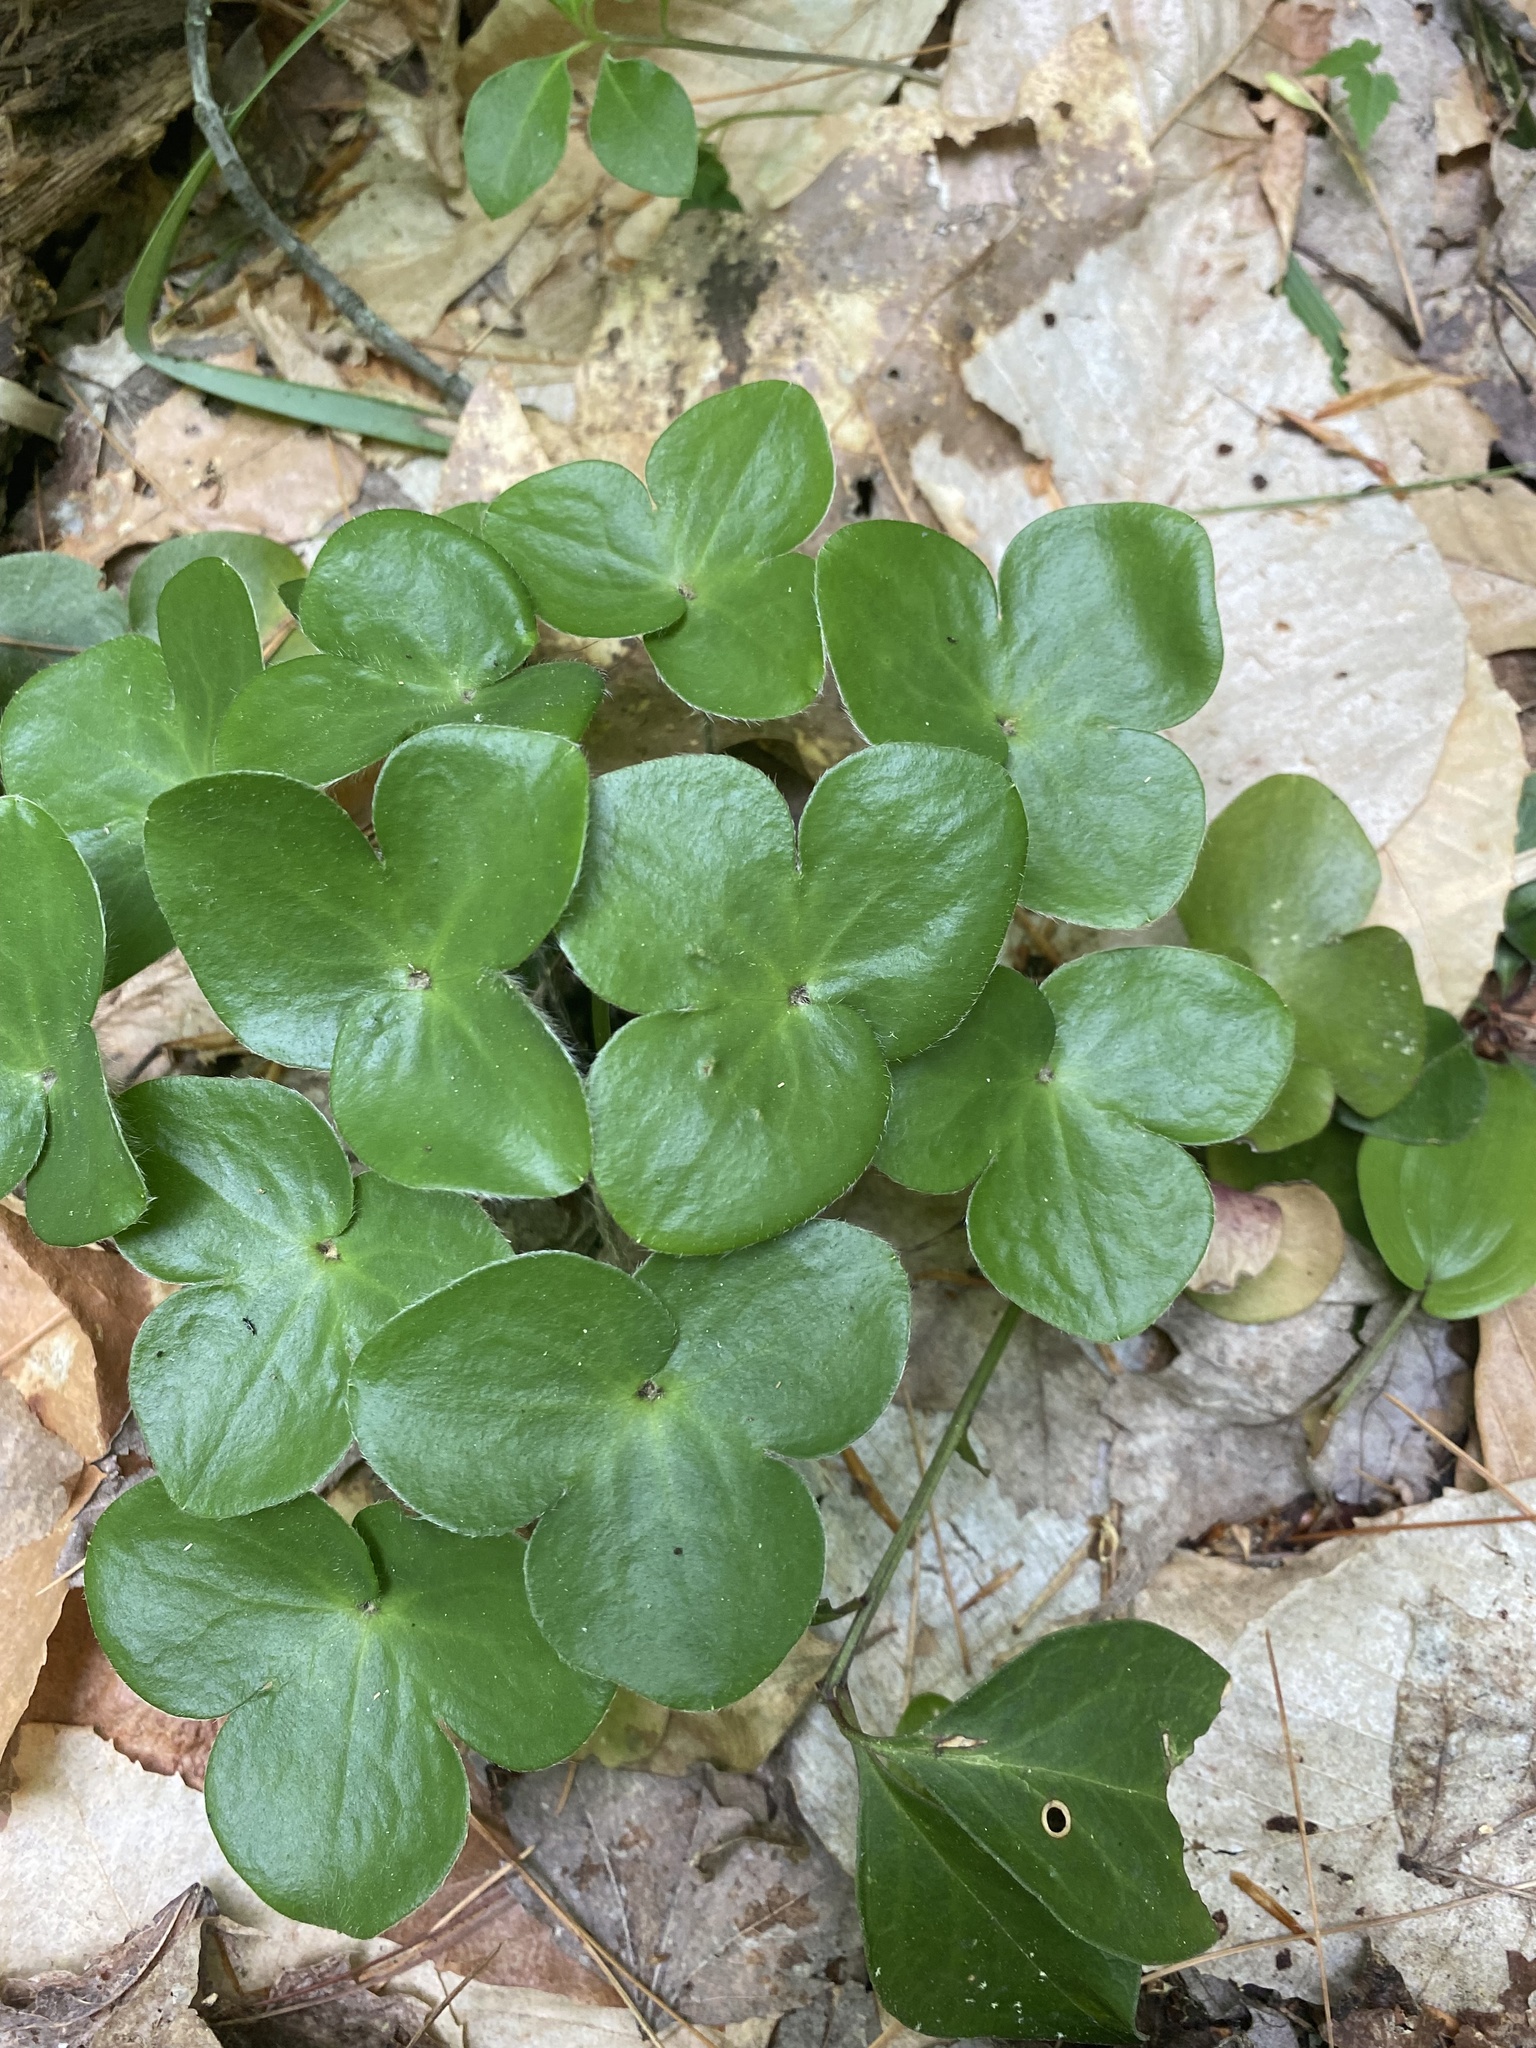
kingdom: Plantae
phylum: Tracheophyta
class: Magnoliopsida
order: Ranunculales
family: Ranunculaceae
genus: Hepatica
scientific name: Hepatica americana
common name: American hepatica
